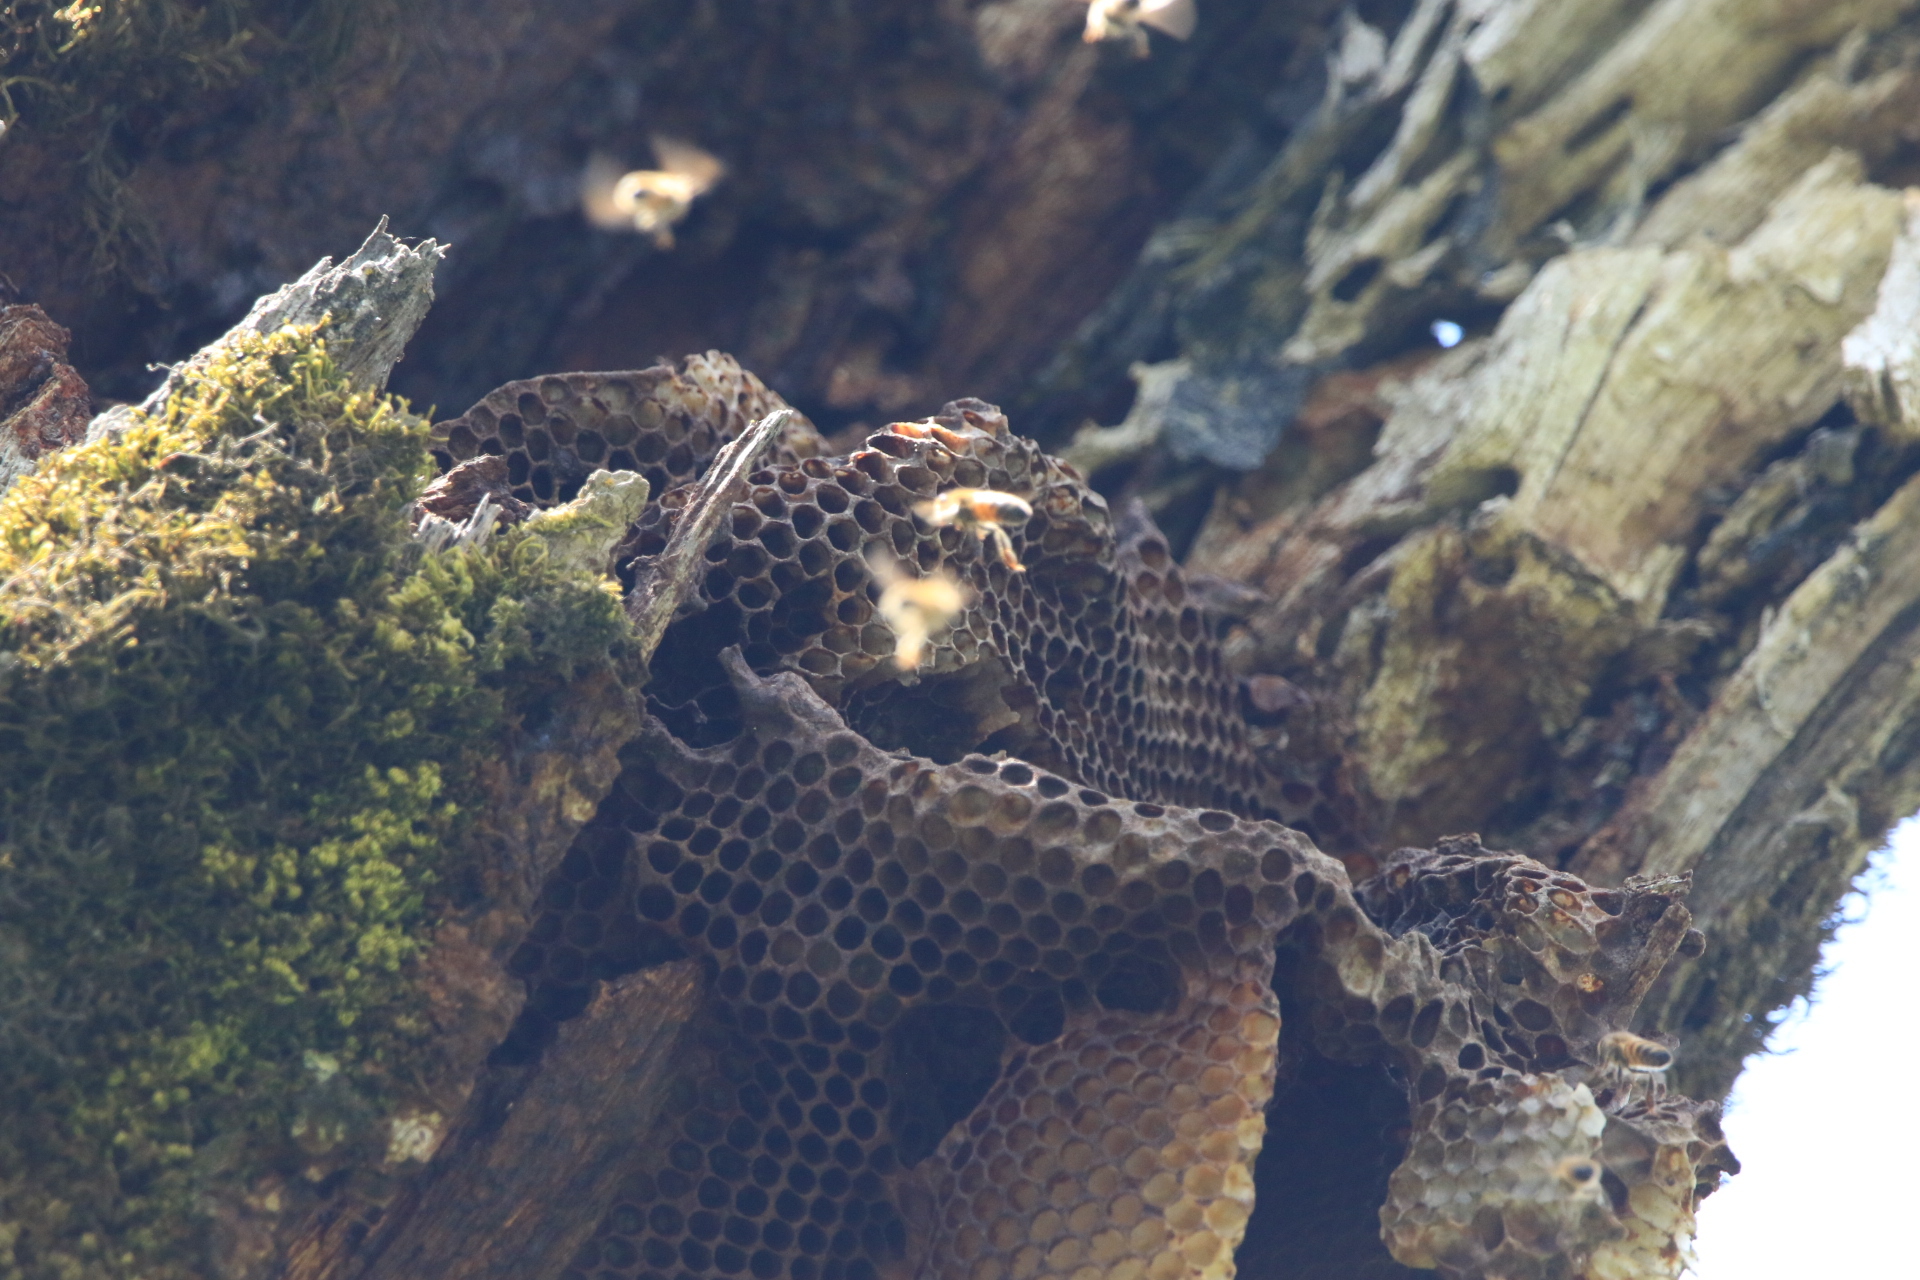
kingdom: Animalia
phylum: Arthropoda
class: Insecta
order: Hymenoptera
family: Apidae
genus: Apis
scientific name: Apis mellifera
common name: Honey bee
